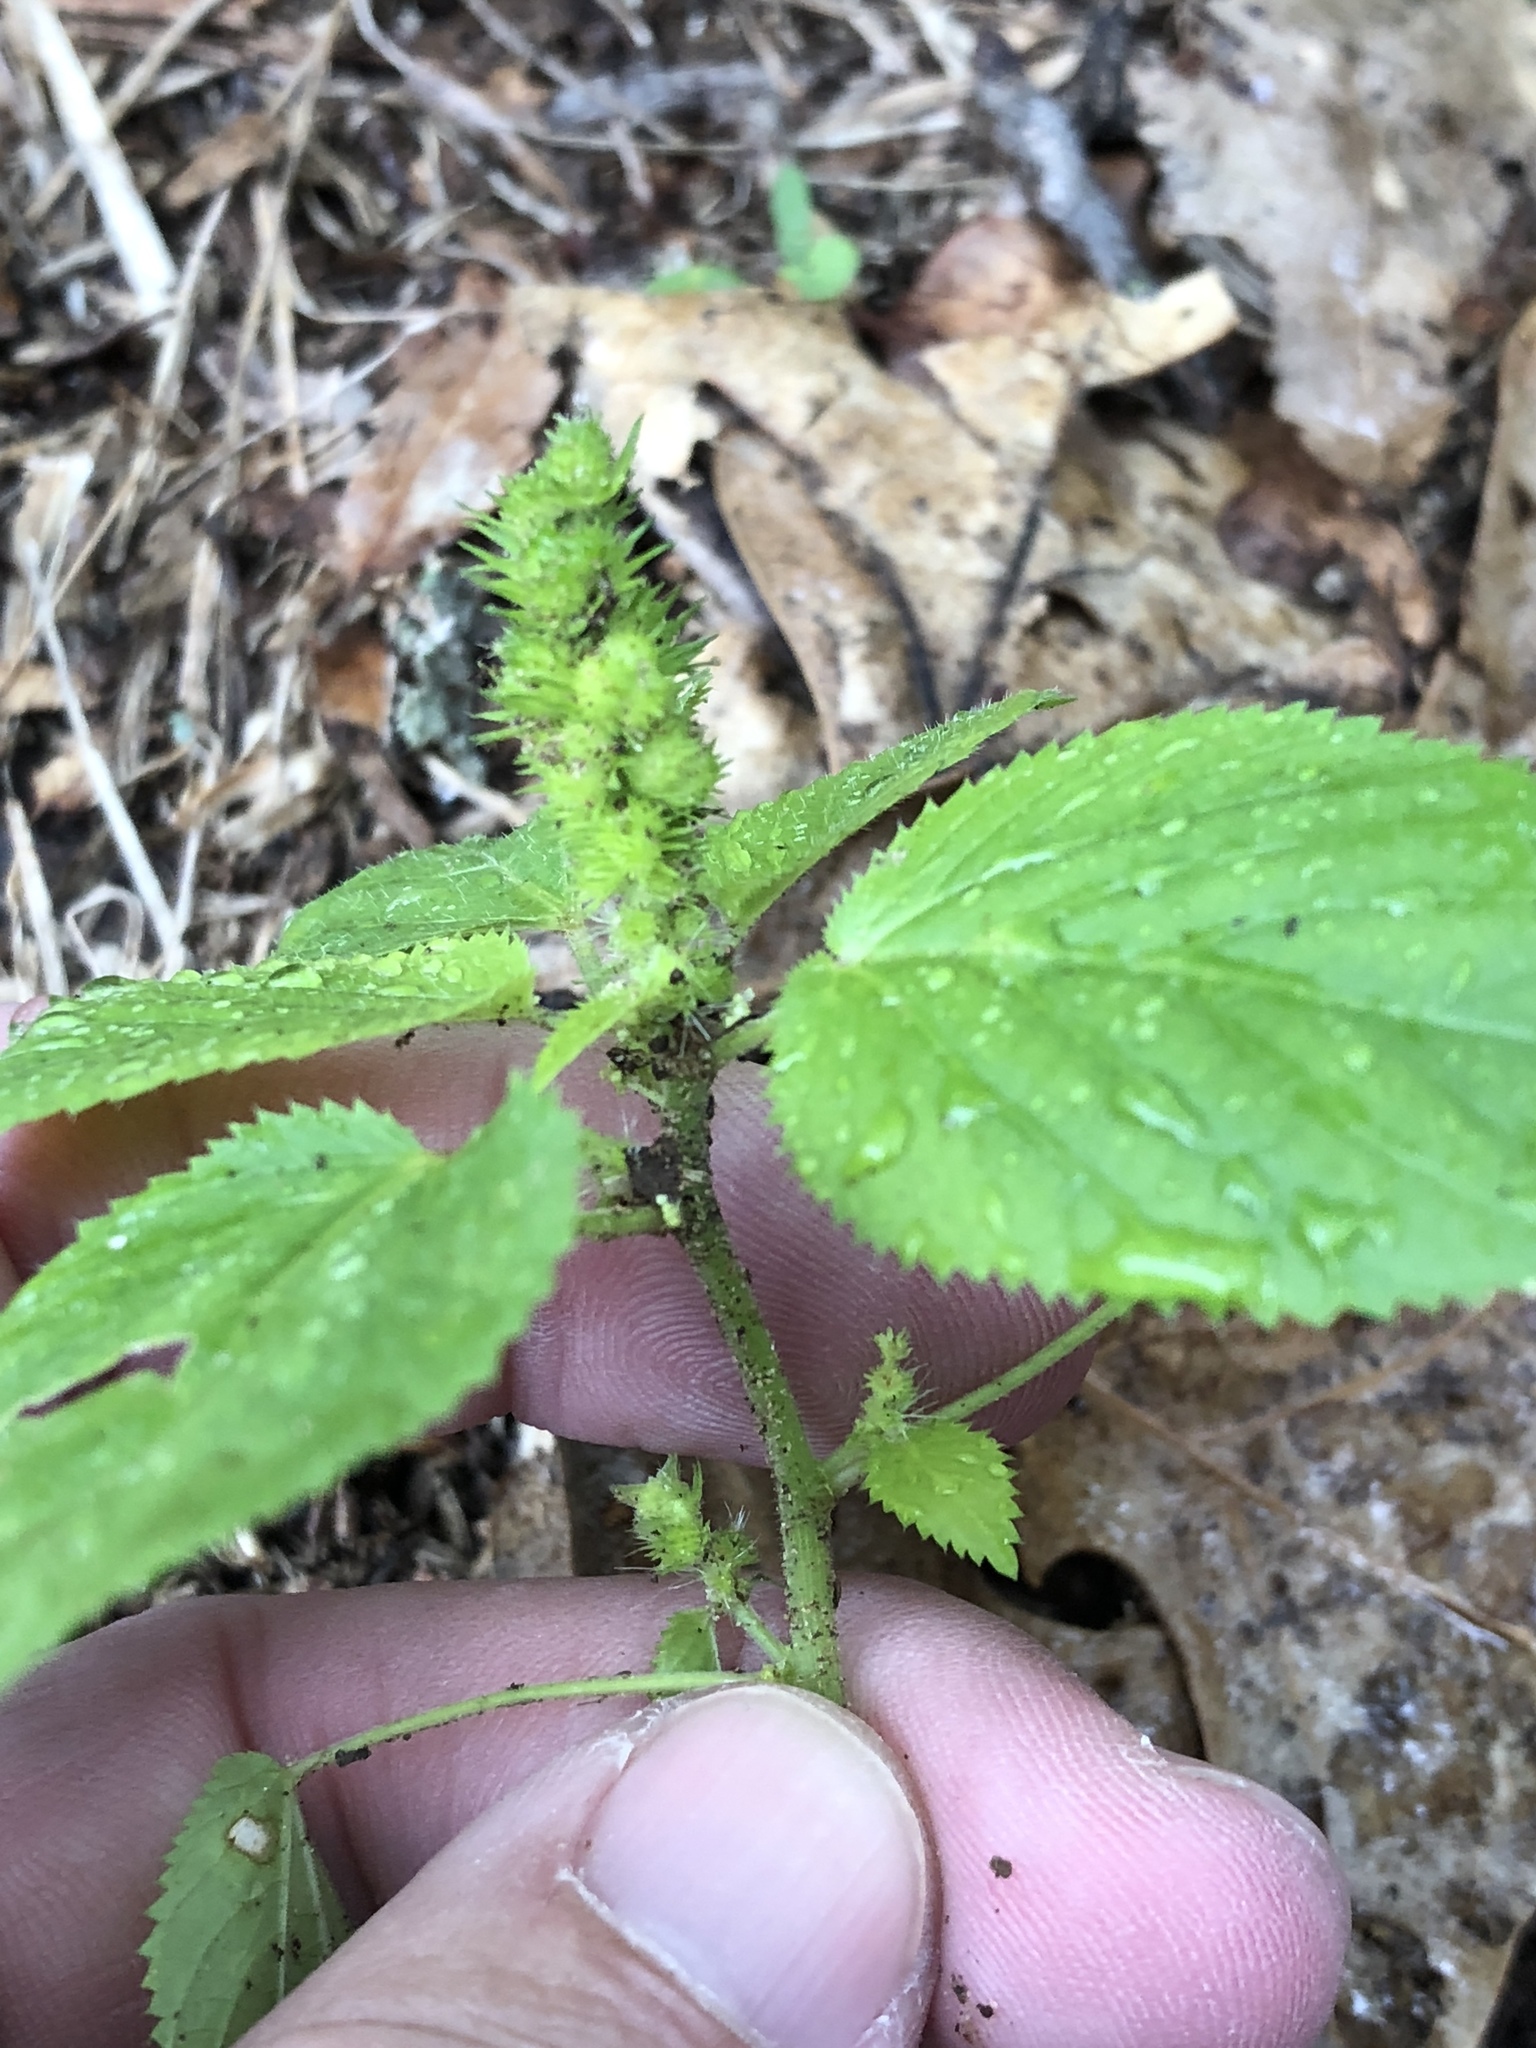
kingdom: Plantae
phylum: Tracheophyta
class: Magnoliopsida
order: Malpighiales
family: Euphorbiaceae
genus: Acalypha
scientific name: Acalypha ostryifolia
